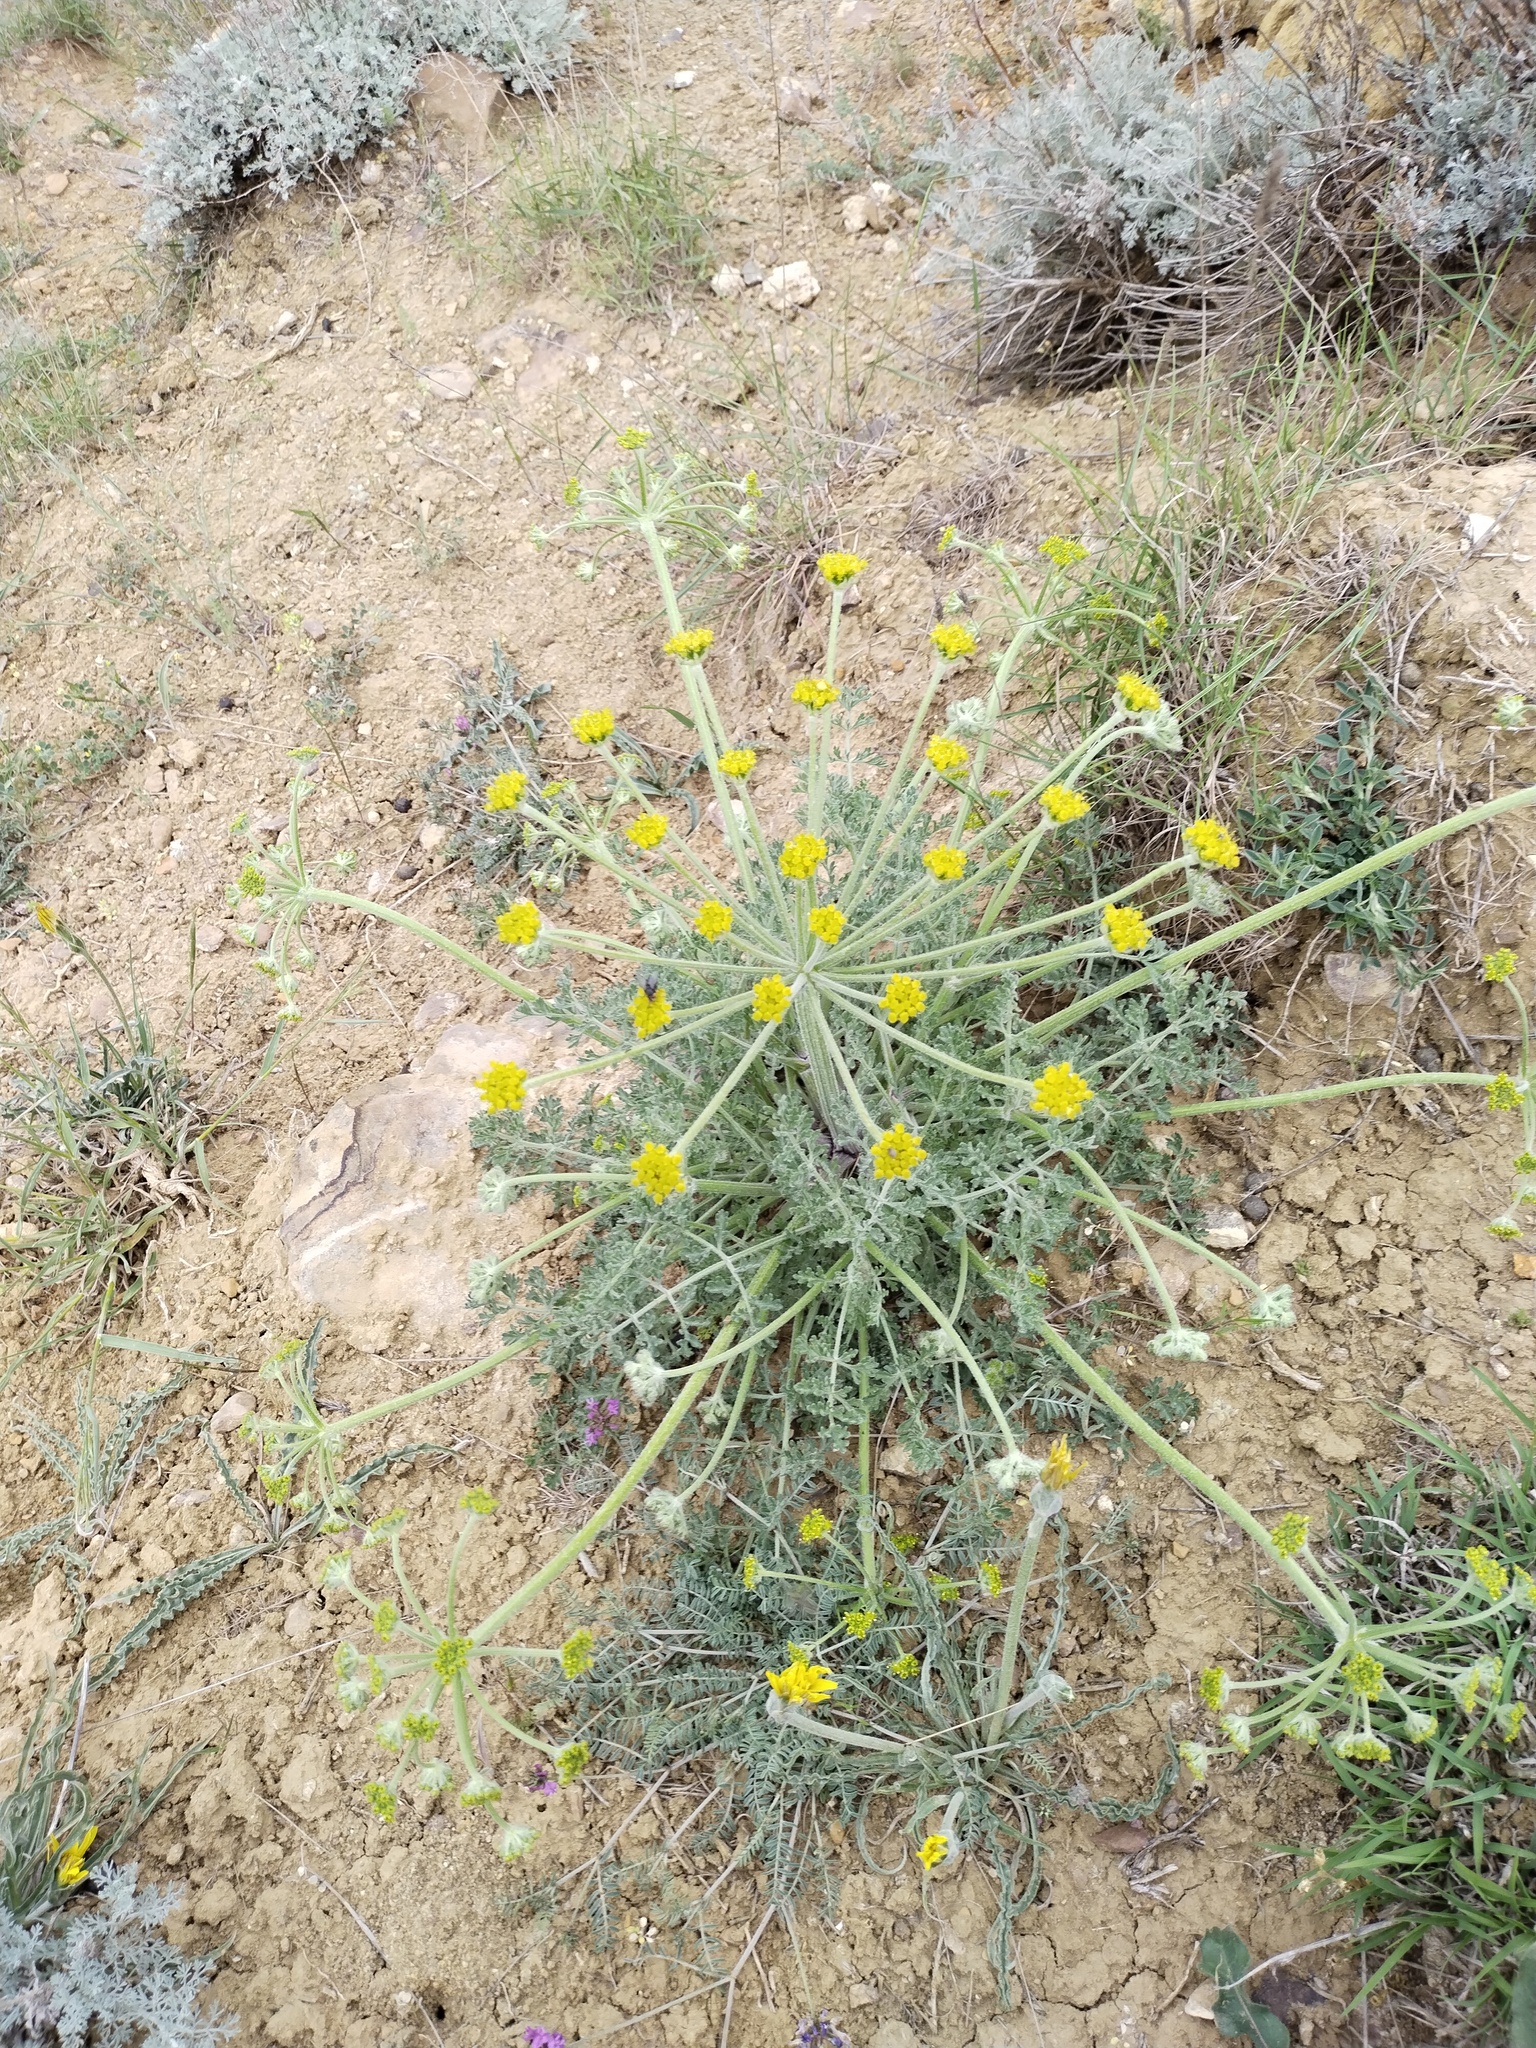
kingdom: Plantae
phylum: Tracheophyta
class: Magnoliopsida
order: Apiales
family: Apiaceae
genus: Zosima
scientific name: Zosima absinthiifolia
